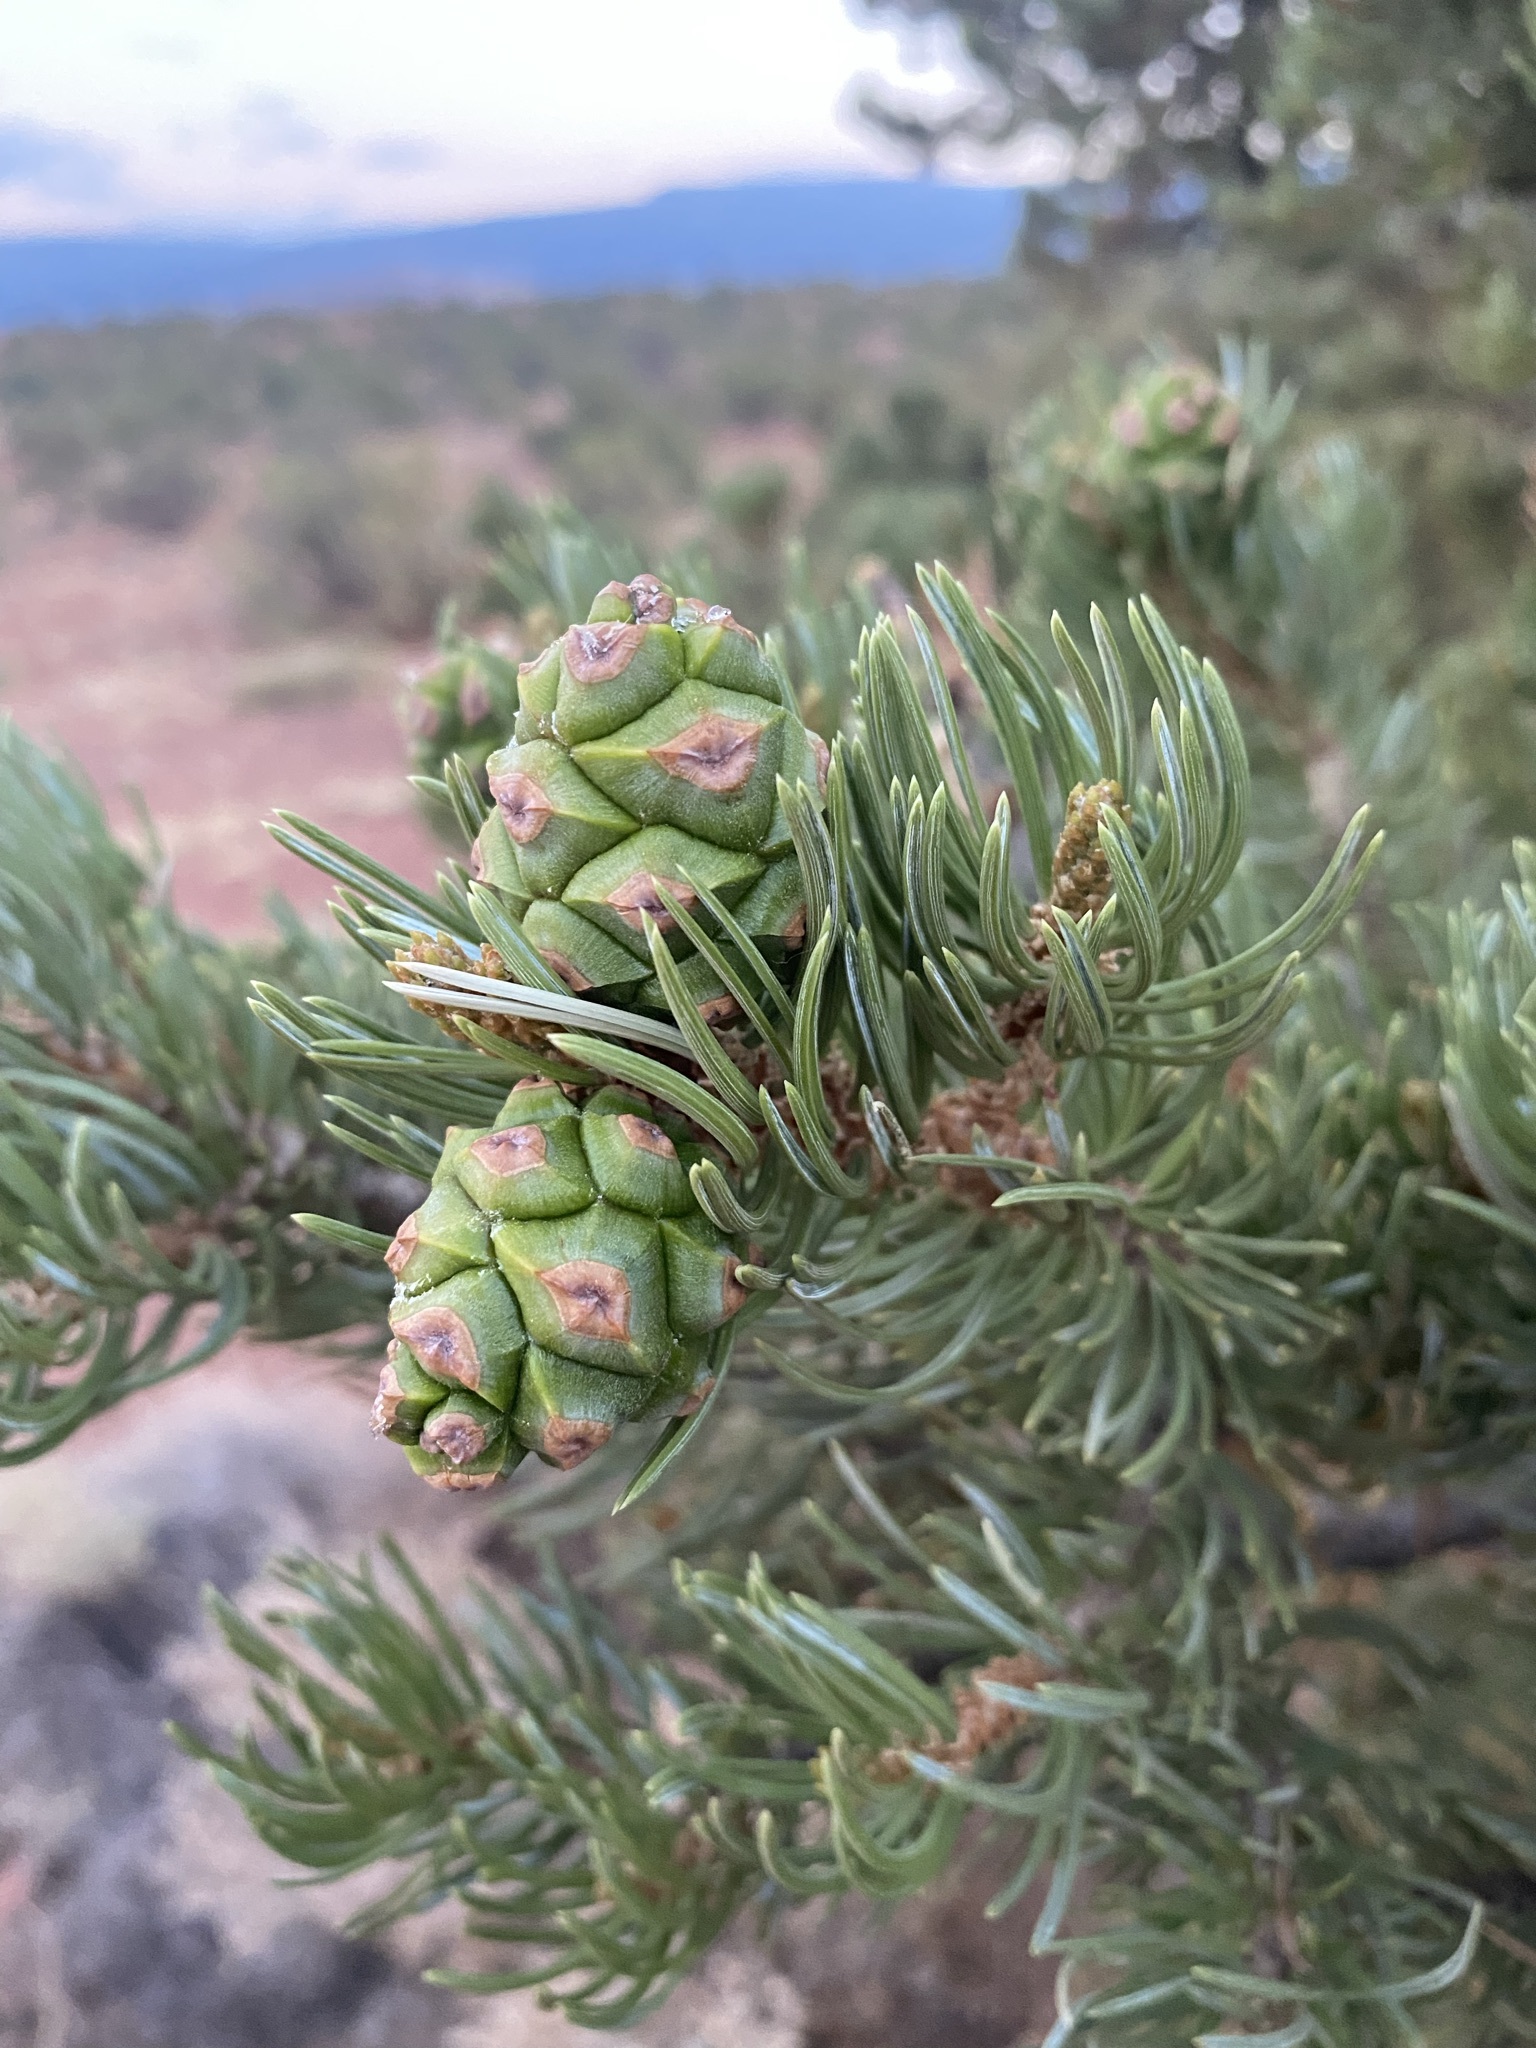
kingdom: Plantae
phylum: Tracheophyta
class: Pinopsida
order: Pinales
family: Pinaceae
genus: Pinus
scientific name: Pinus edulis
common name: Colorado pinyon
